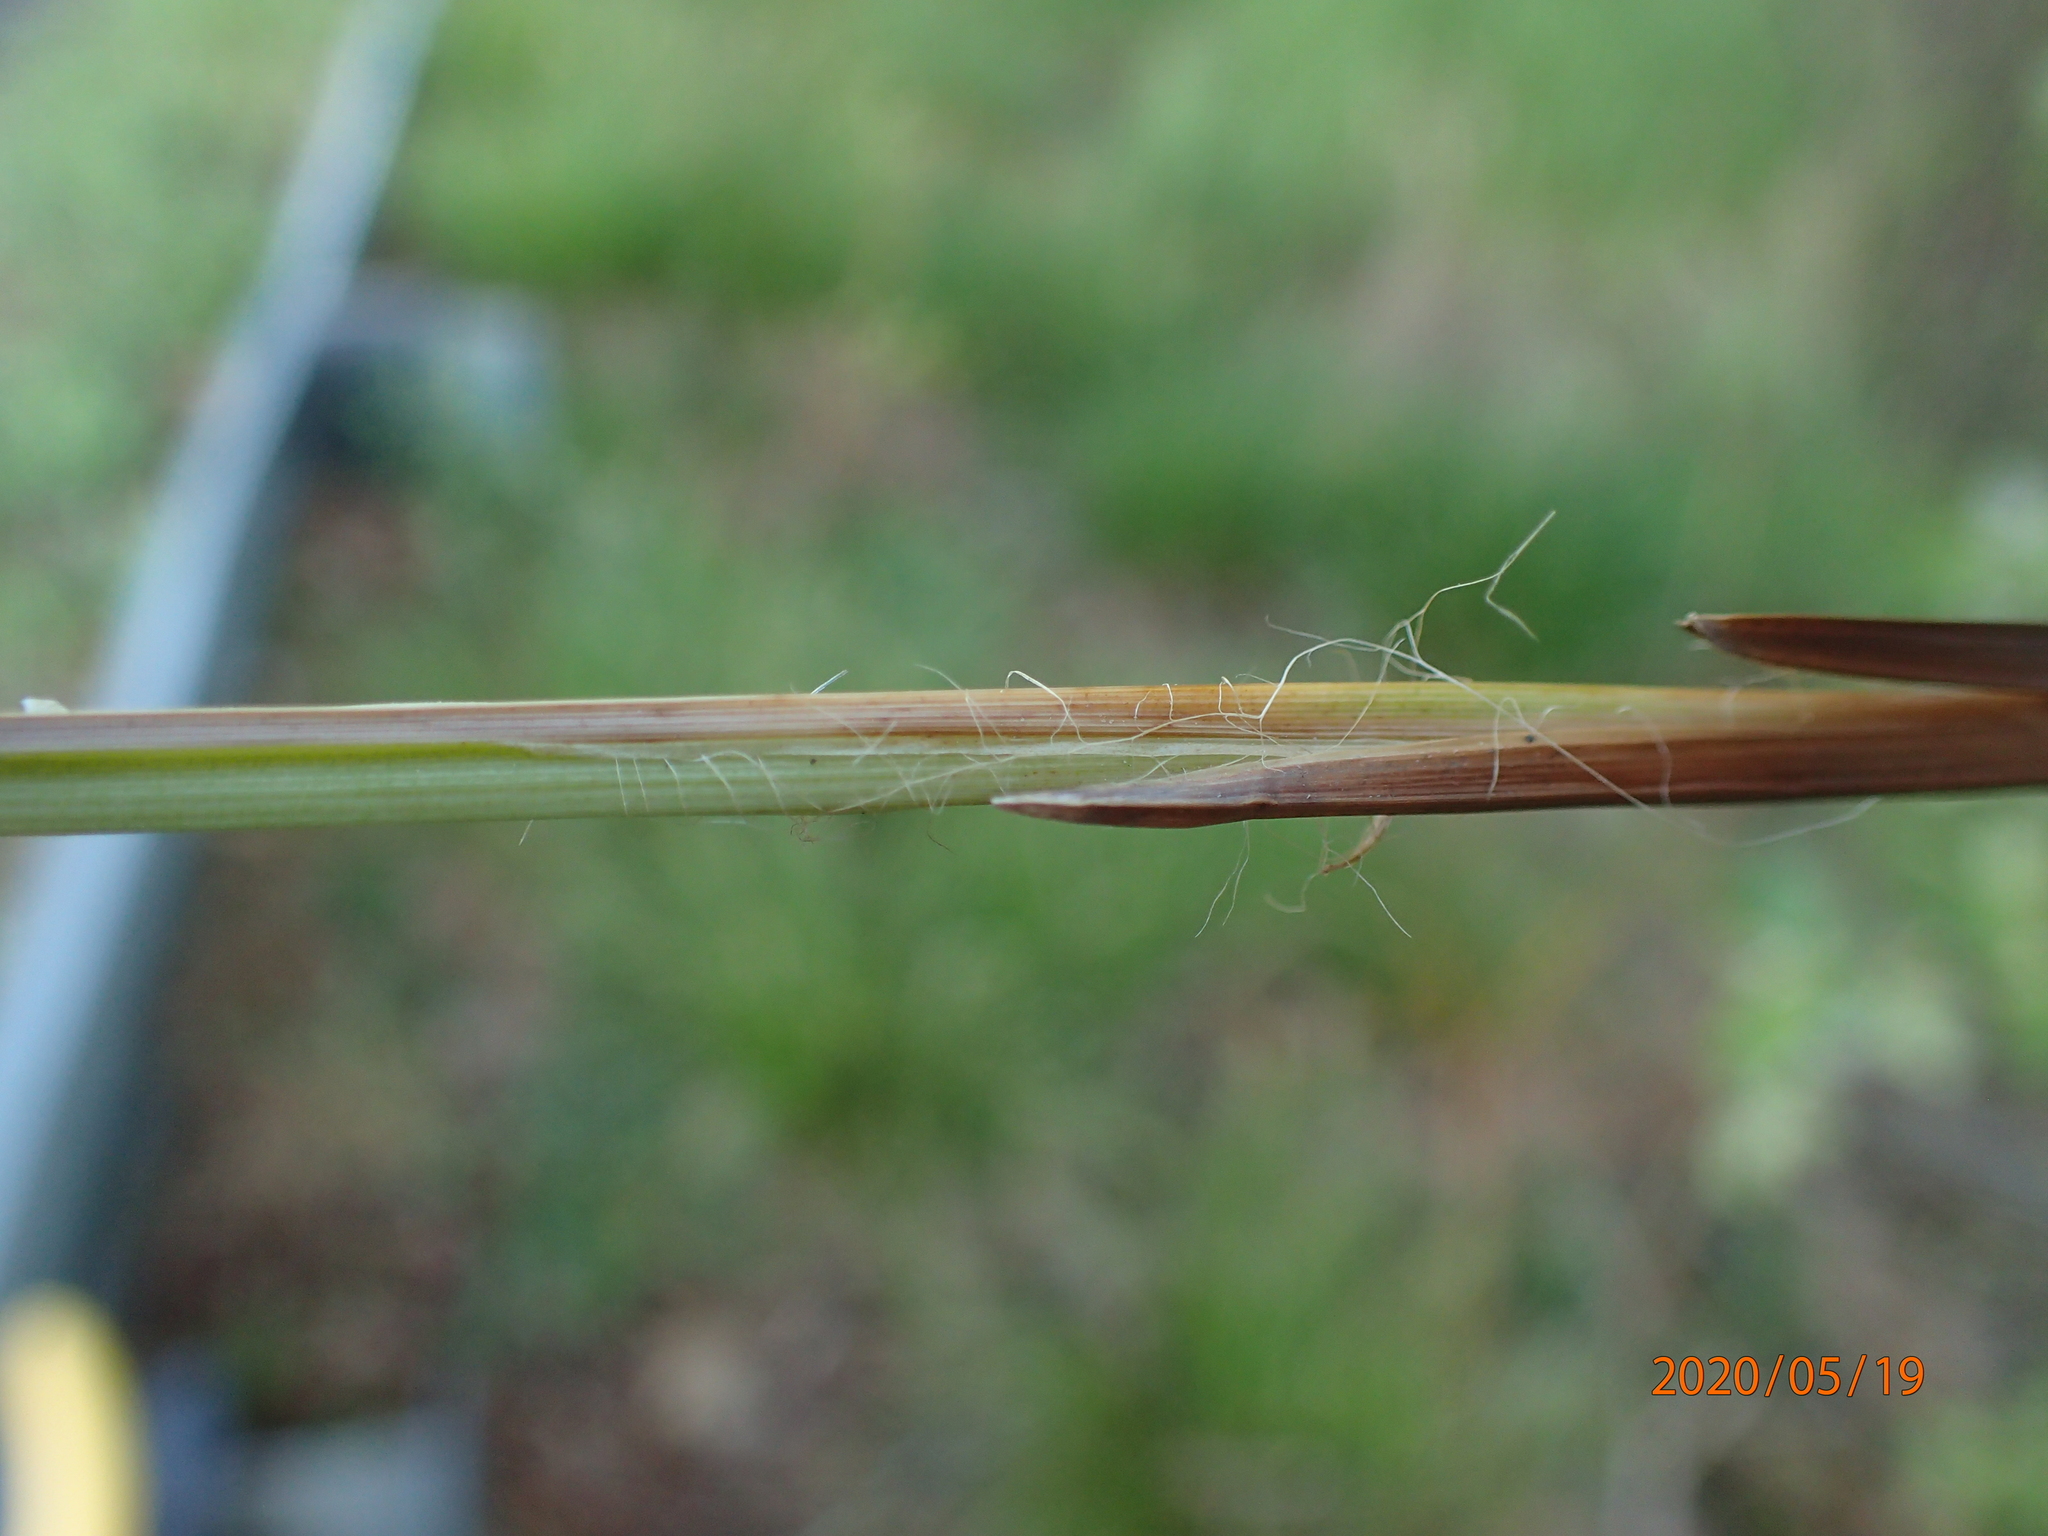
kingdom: Plantae
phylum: Tracheophyta
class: Liliopsida
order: Poales
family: Cyperaceae
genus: Carex
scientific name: Carex stricta
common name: Hummock sedge
